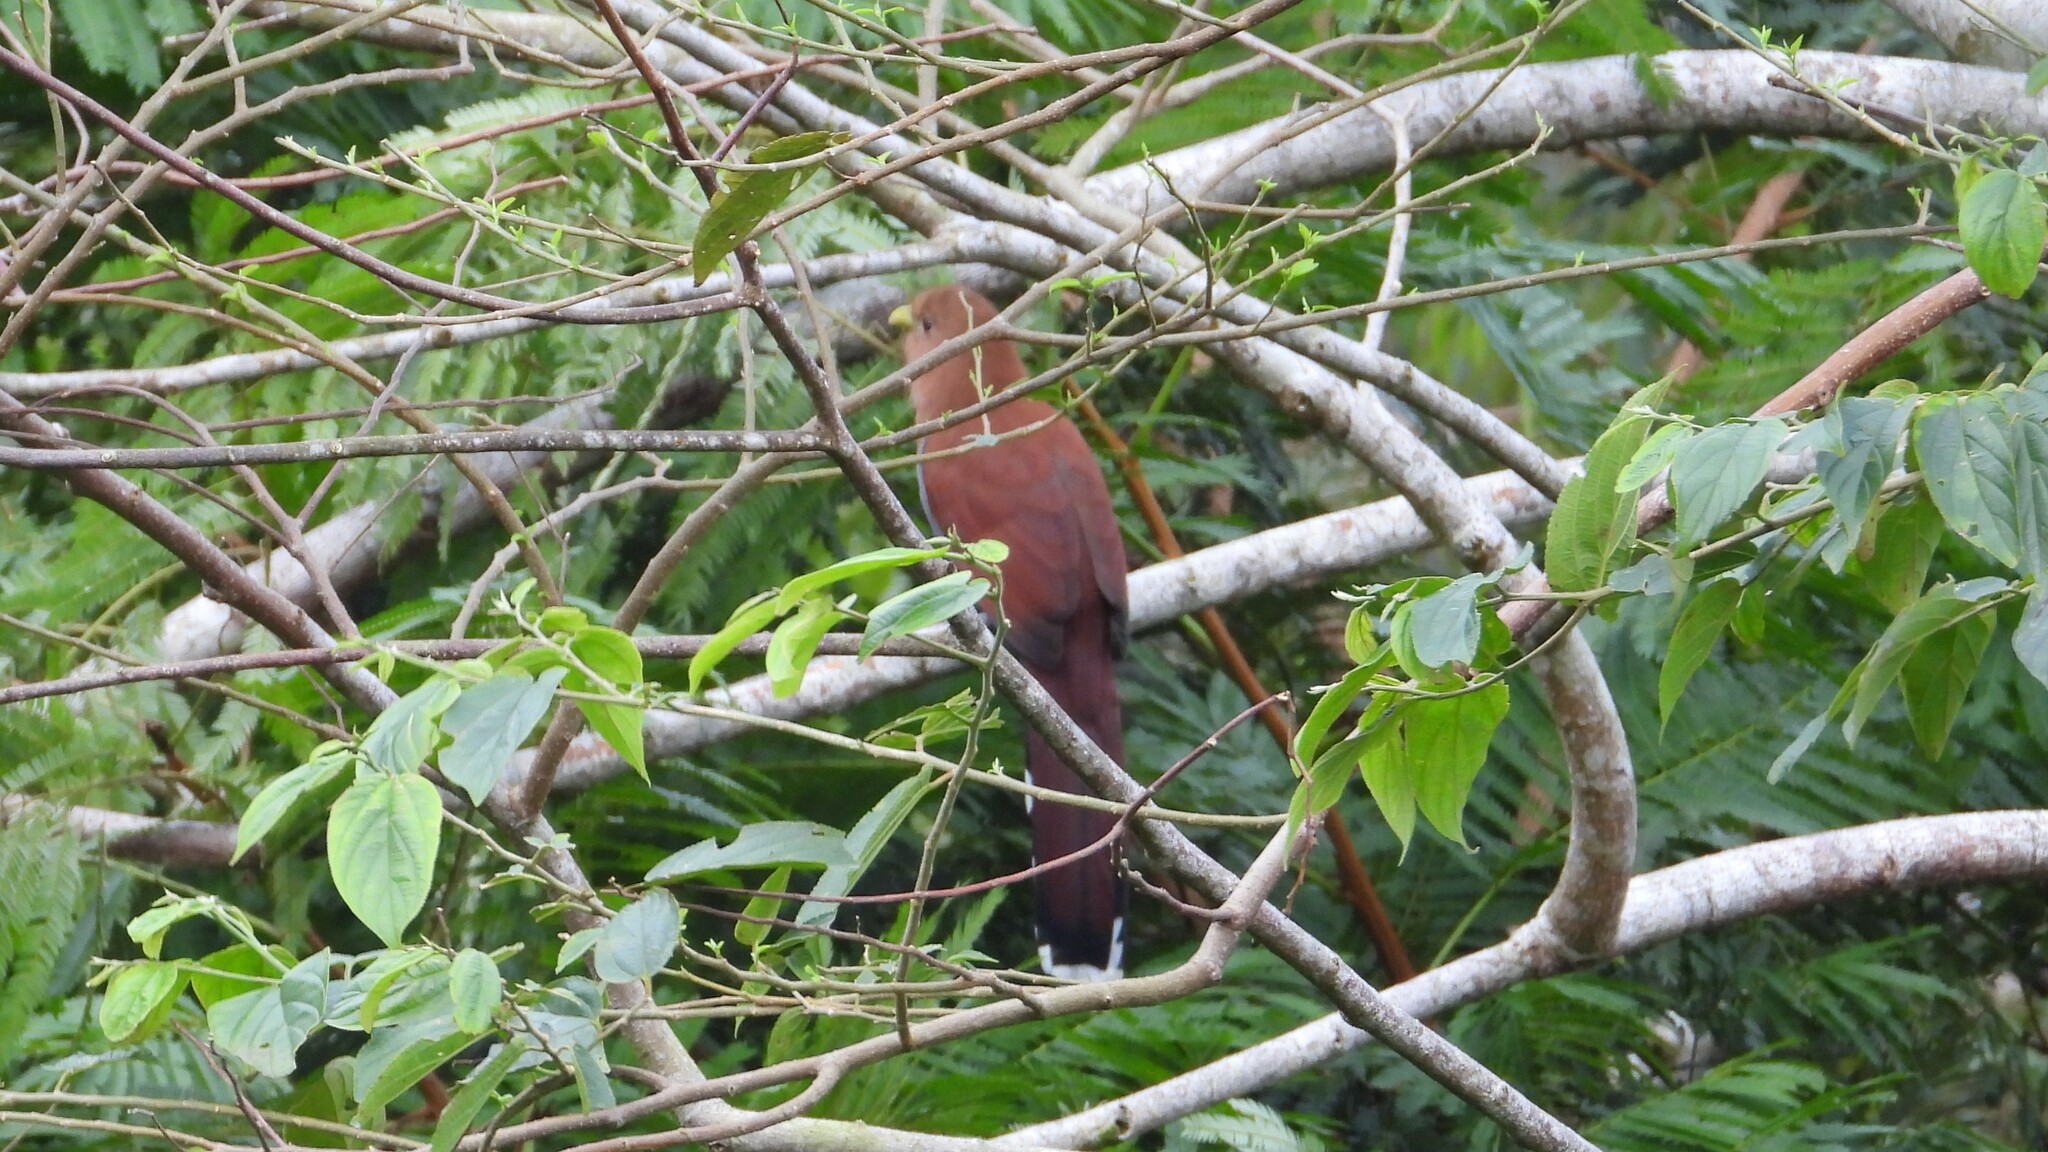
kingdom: Animalia
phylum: Chordata
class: Aves
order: Cuculiformes
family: Cuculidae
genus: Piaya
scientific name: Piaya cayana
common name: Squirrel cuckoo
